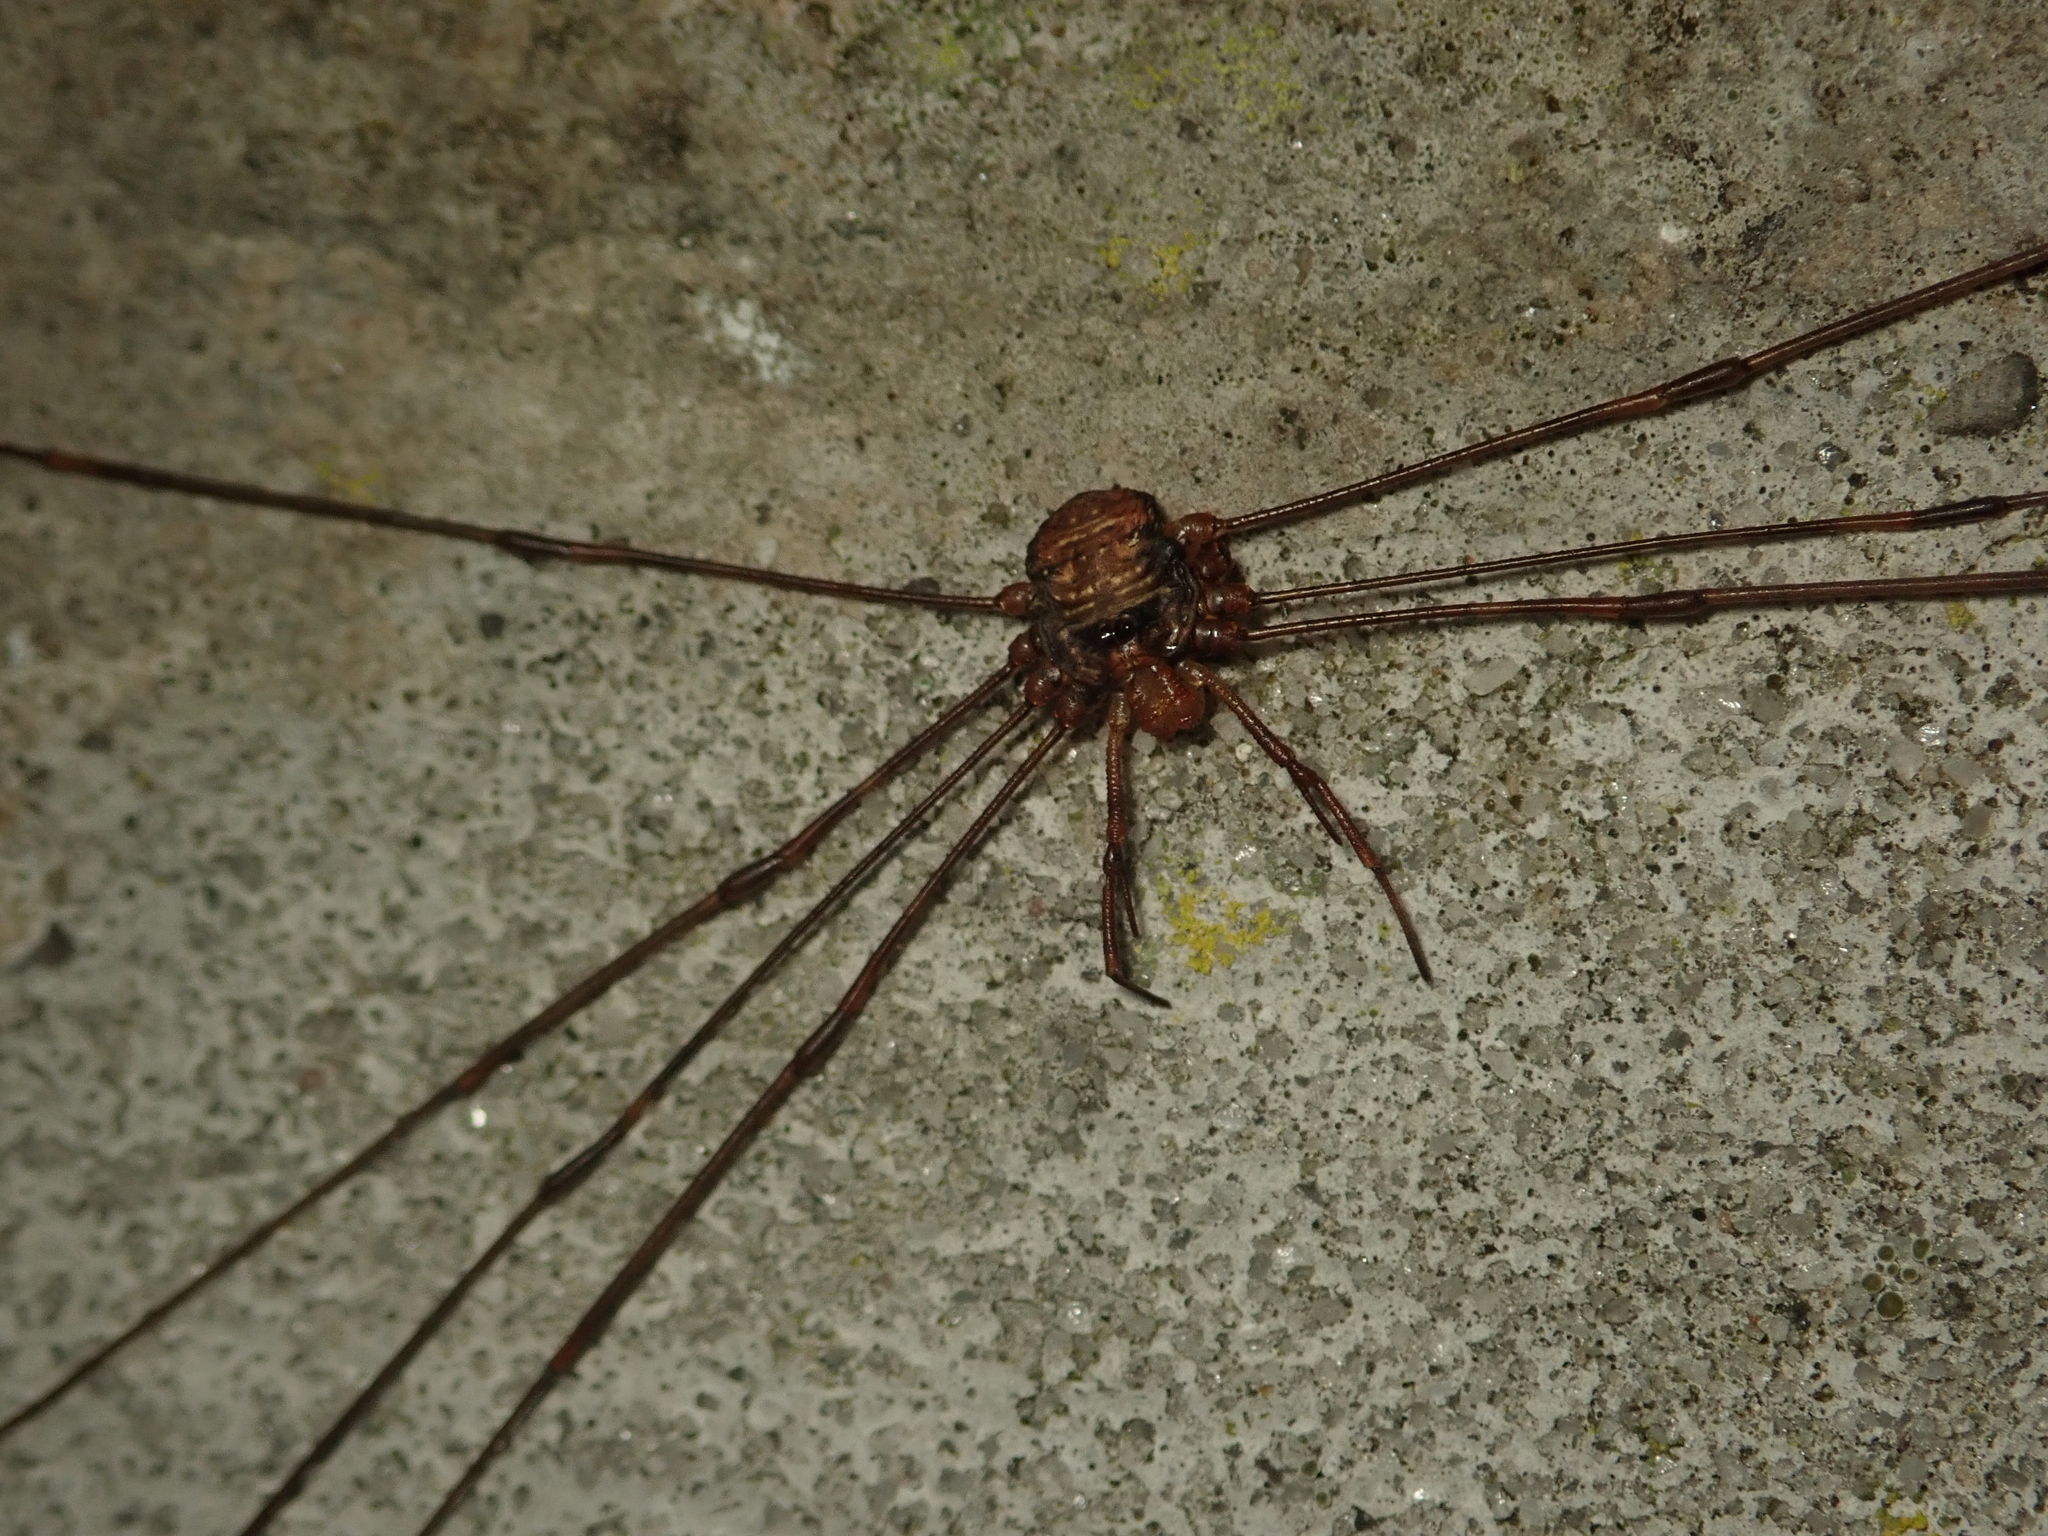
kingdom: Animalia
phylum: Arthropoda
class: Arachnida
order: Opiliones
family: Phalangiidae
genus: Dicranopalpus
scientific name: Dicranopalpus ramosus
